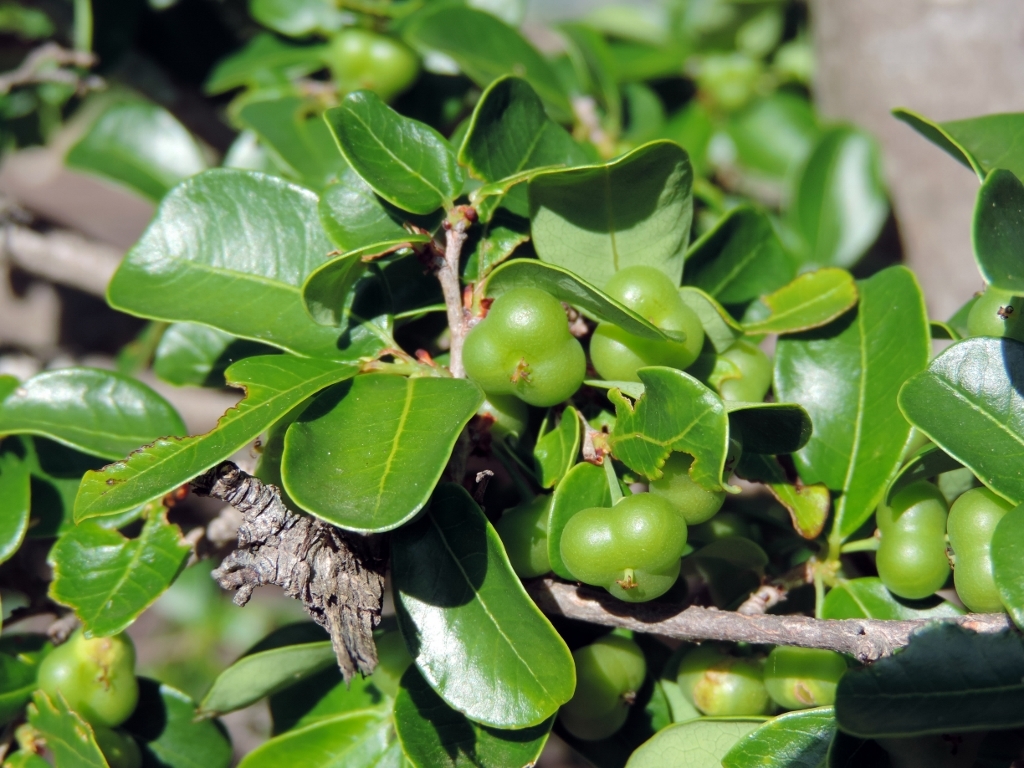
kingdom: Plantae
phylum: Tracheophyta
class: Magnoliopsida
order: Malpighiales
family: Phyllanthaceae
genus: Margaritaria
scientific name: Margaritaria discoidea
